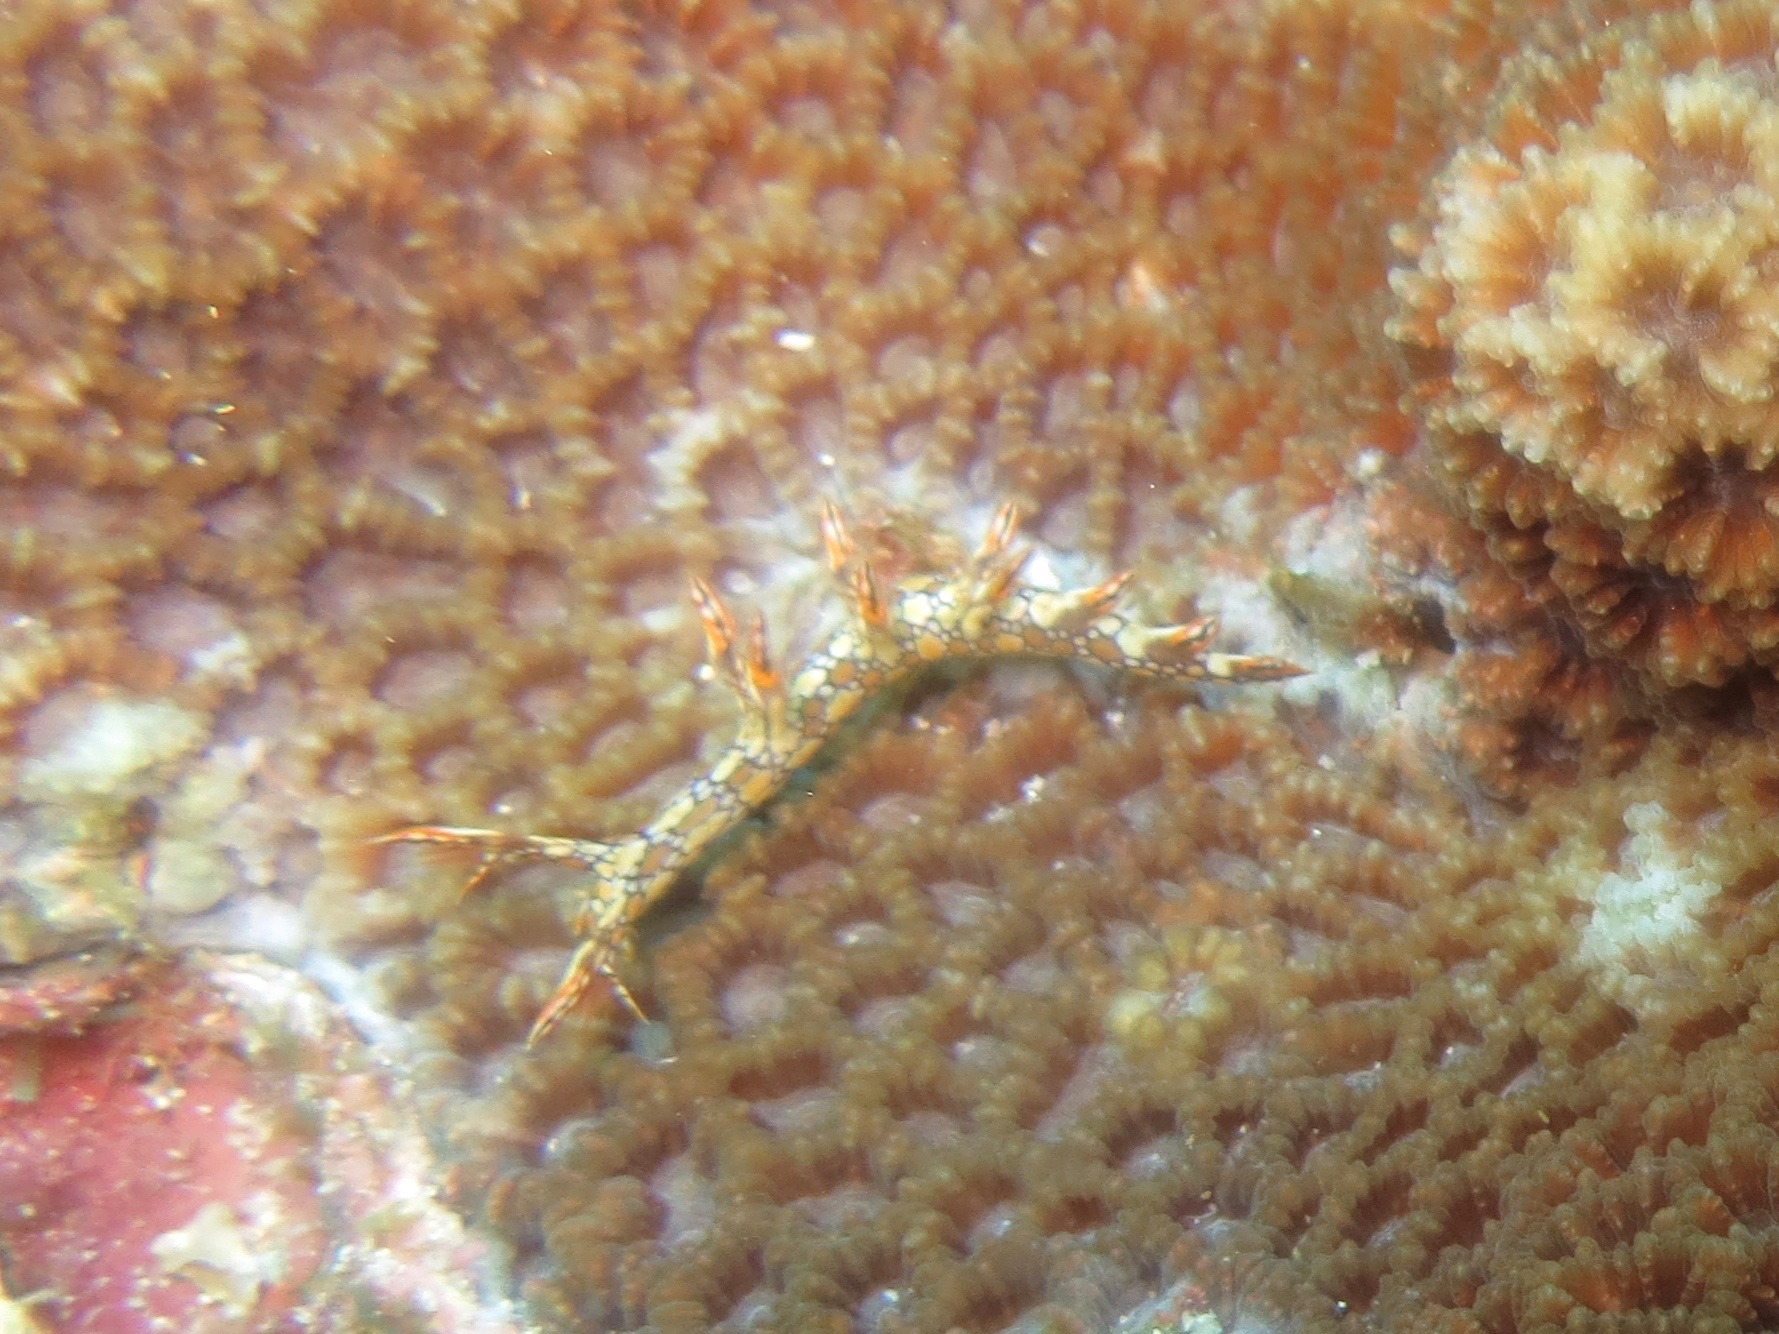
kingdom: Animalia
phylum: Mollusca
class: Gastropoda
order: Nudibranchia
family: Bornellidae
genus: Bornella
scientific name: Bornella anguilla
